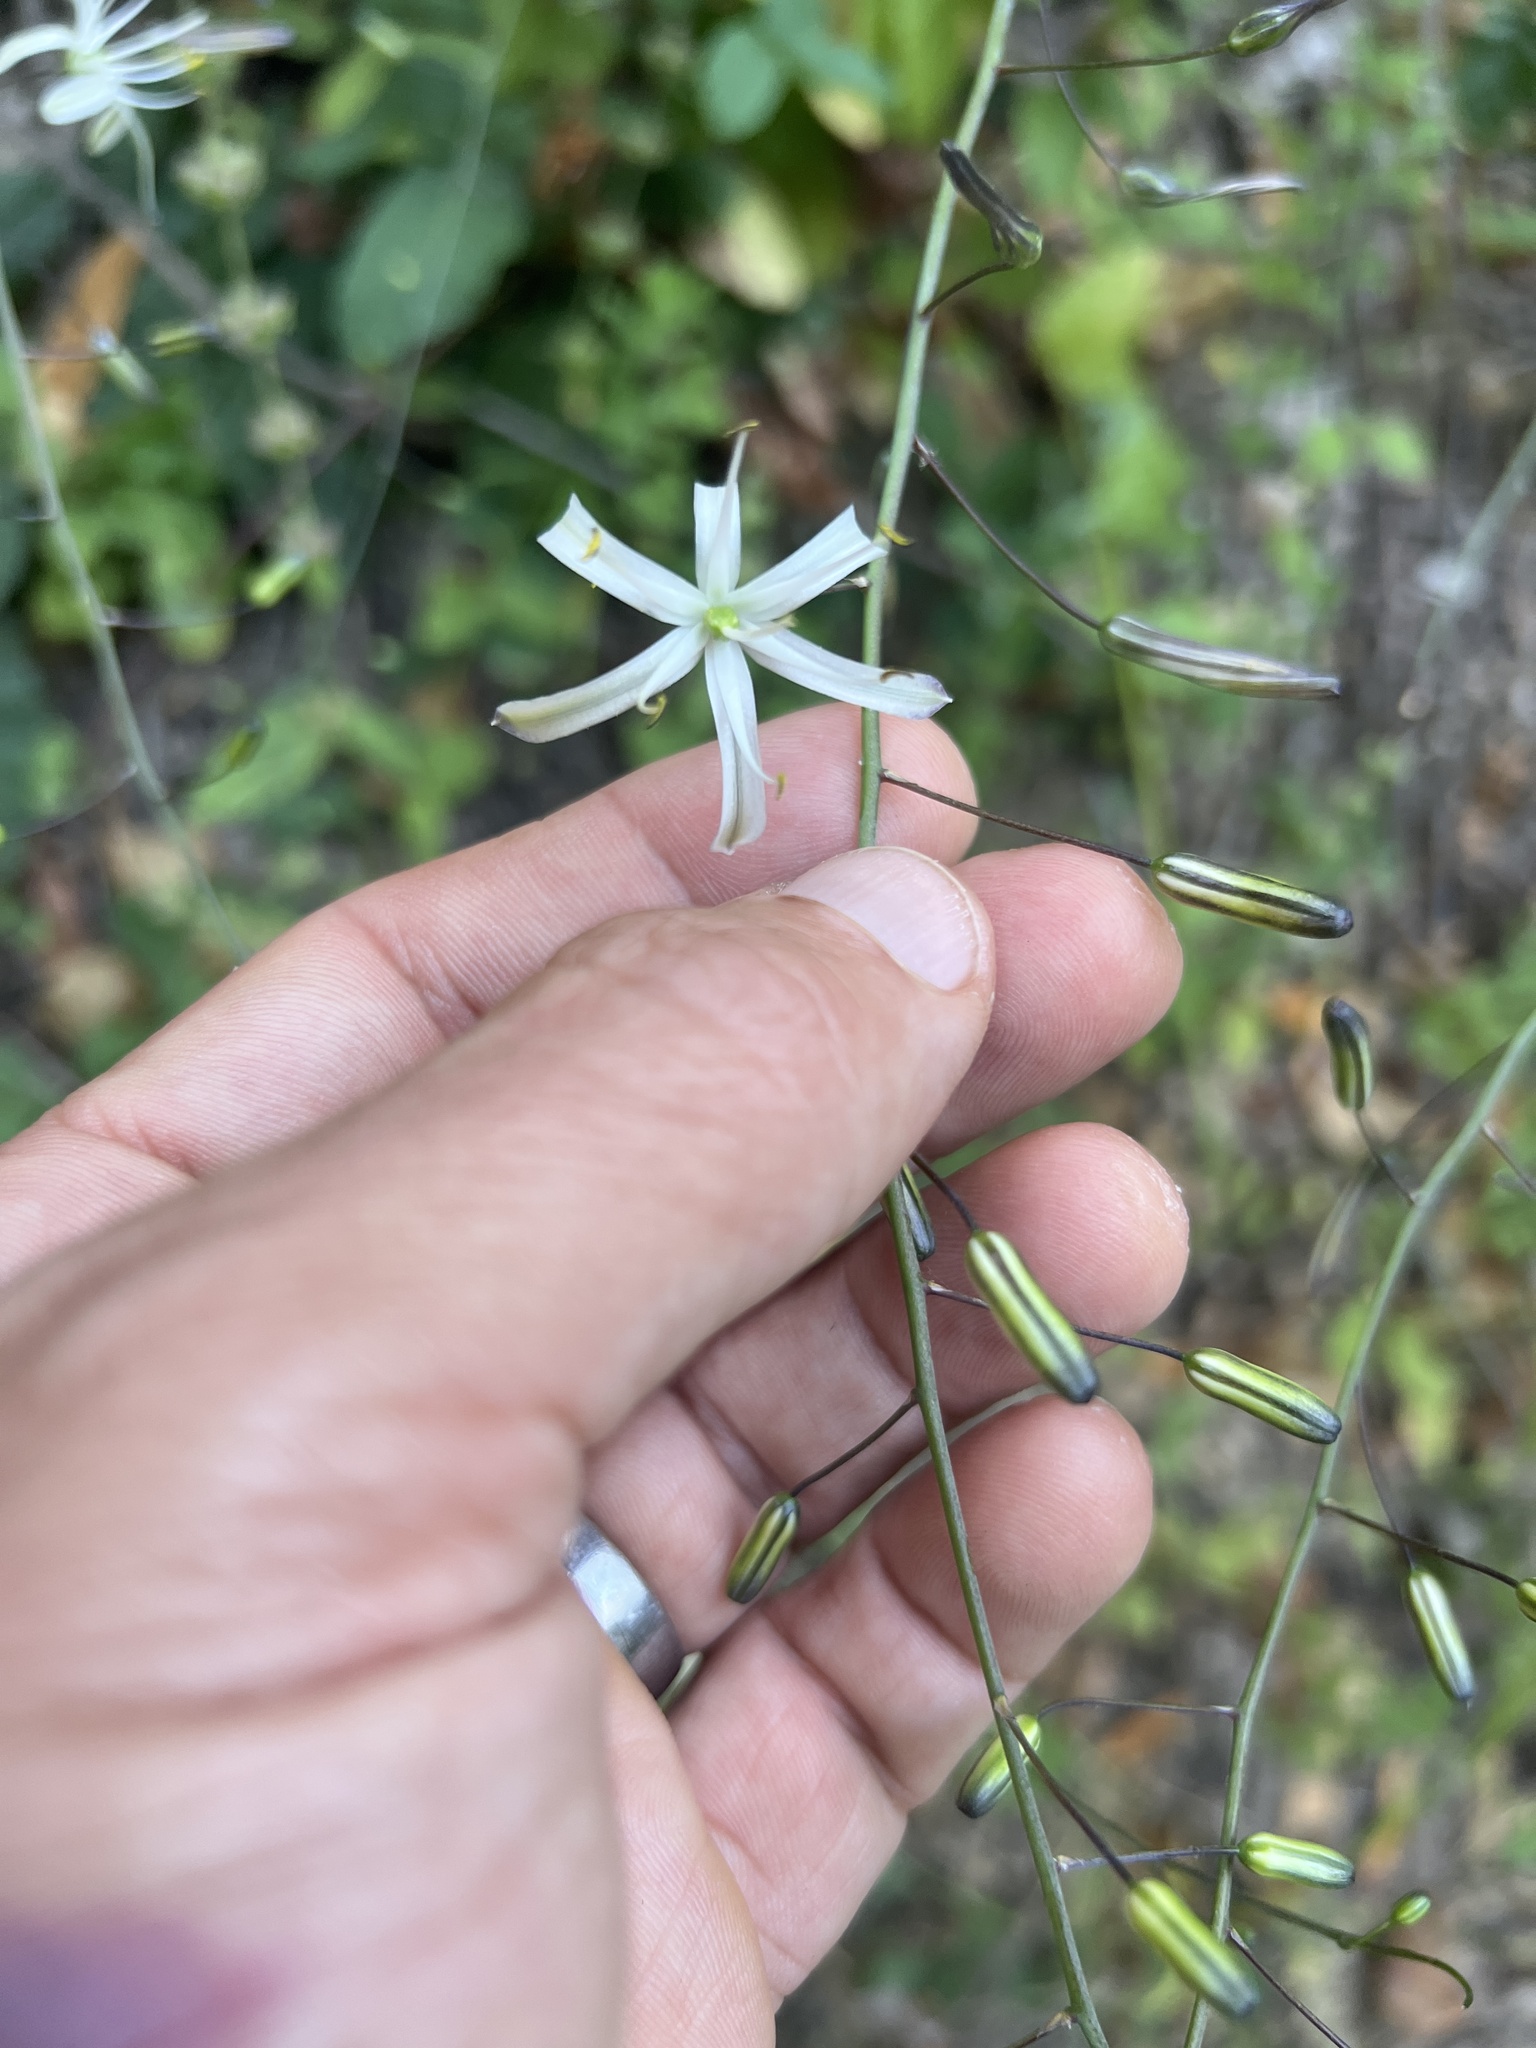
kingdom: Plantae
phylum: Tracheophyta
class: Liliopsida
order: Asparagales
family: Asparagaceae
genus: Chlorogalum
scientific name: Chlorogalum pomeridianum
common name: Amole
